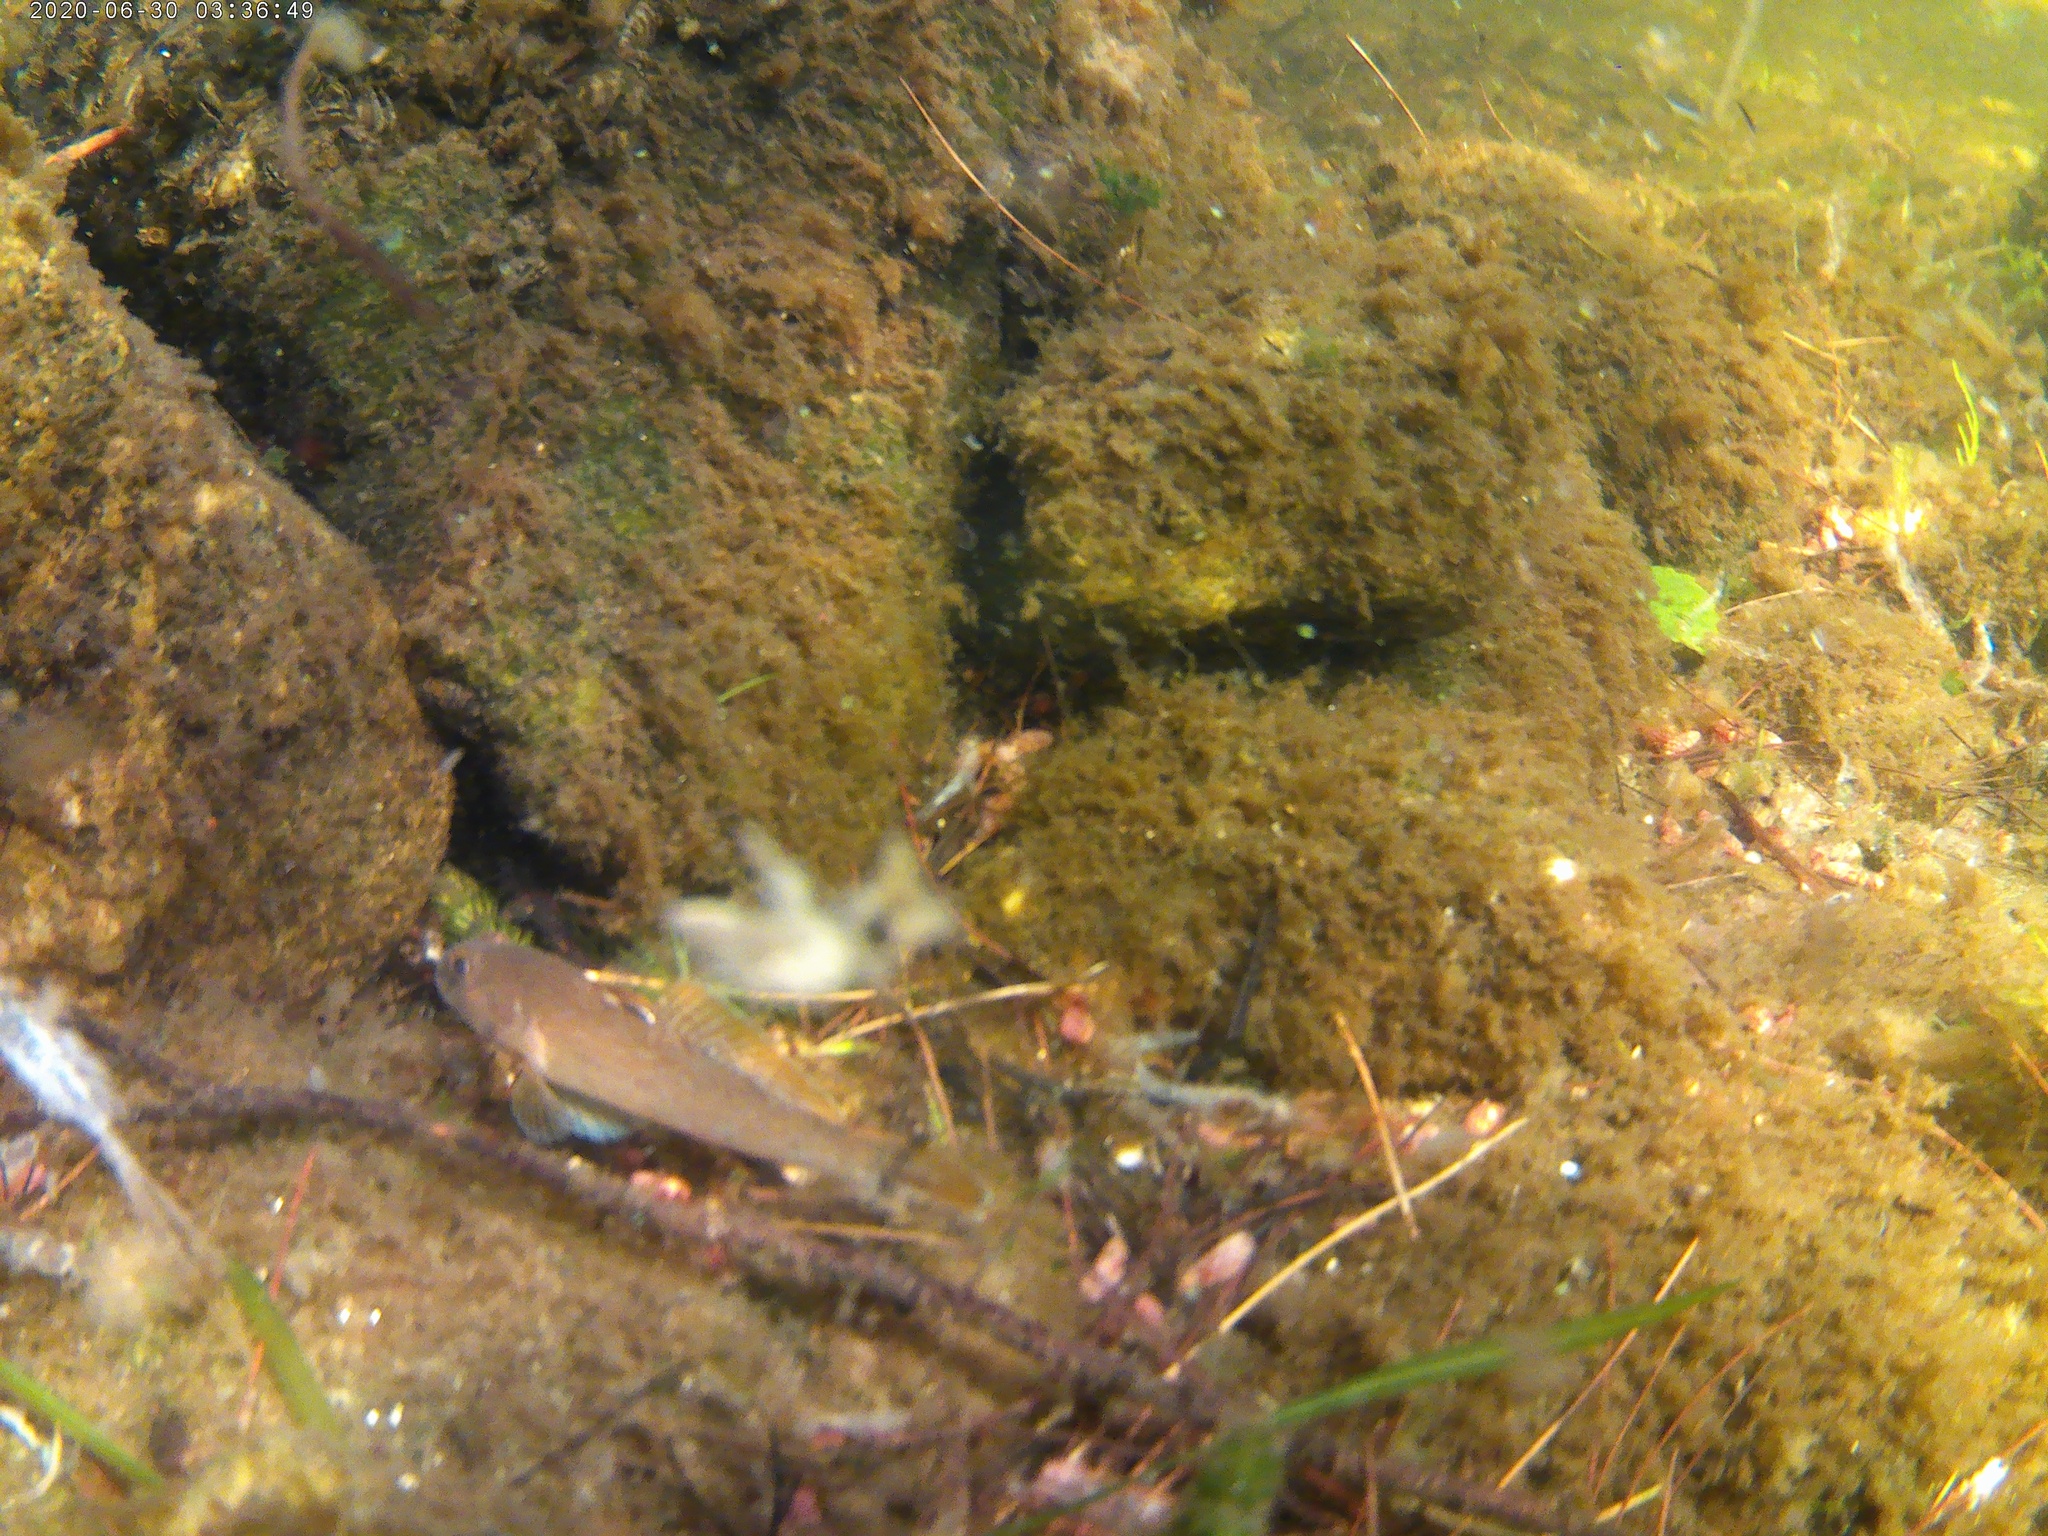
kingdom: Animalia
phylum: Chordata
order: Perciformes
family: Gobiidae
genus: Neogobius
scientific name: Neogobius melanostomus
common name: Round goby
